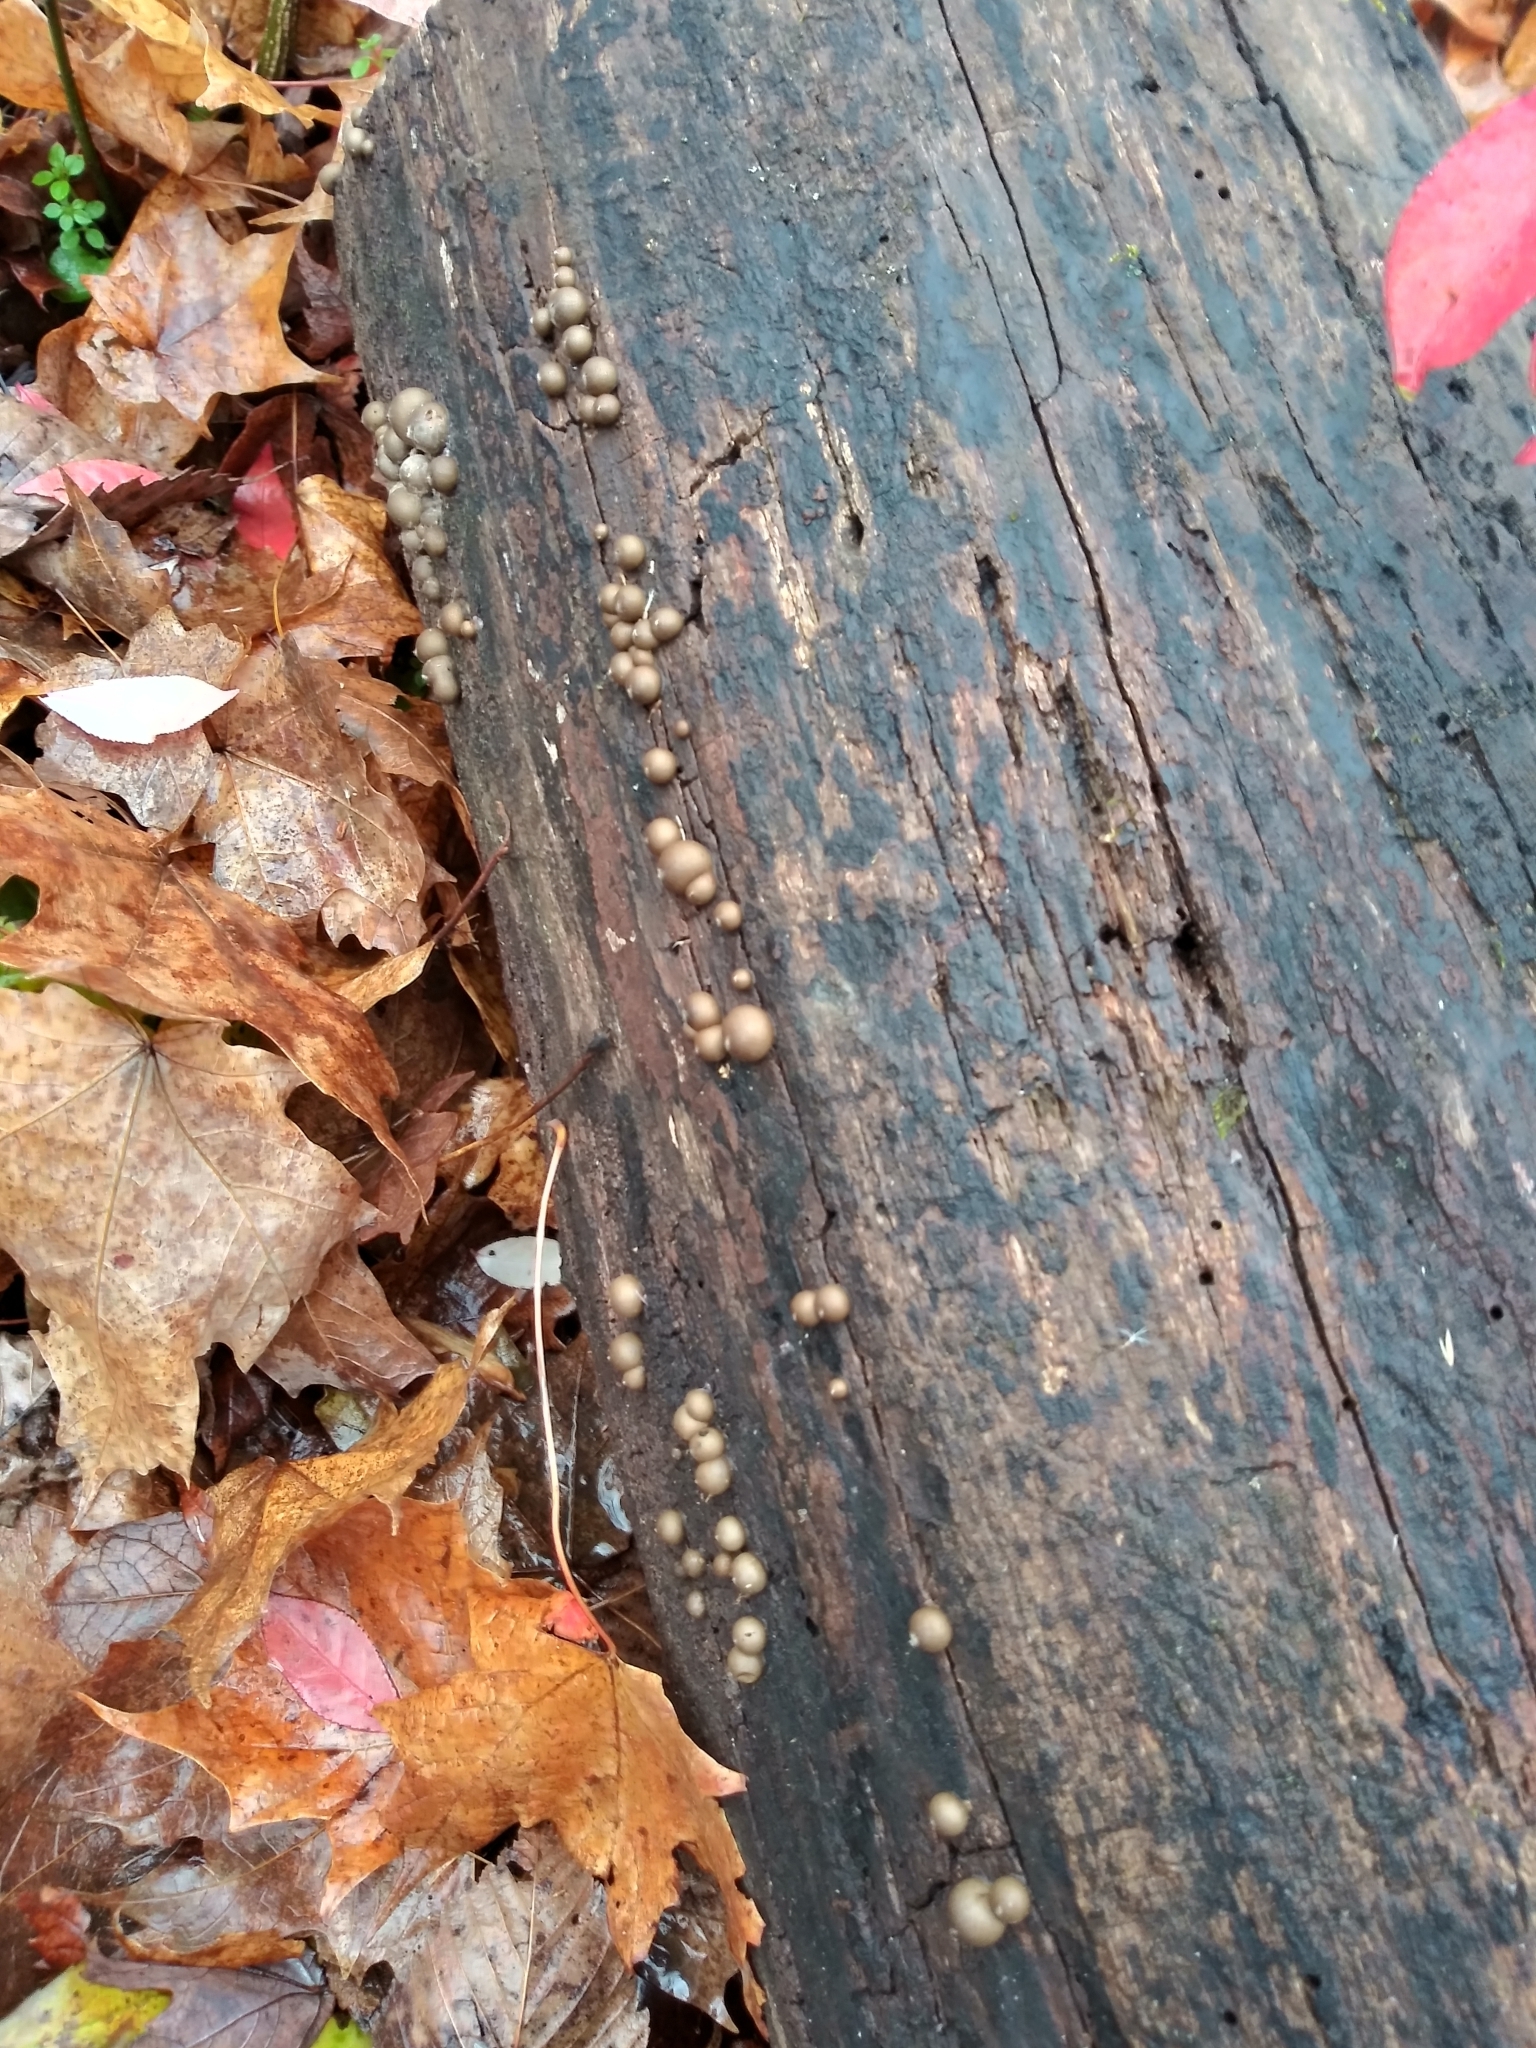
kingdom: Protozoa
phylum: Mycetozoa
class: Myxomycetes
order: Cribrariales
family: Tubiferaceae
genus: Lycogala
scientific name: Lycogala epidendrum
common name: Wolf's milk
